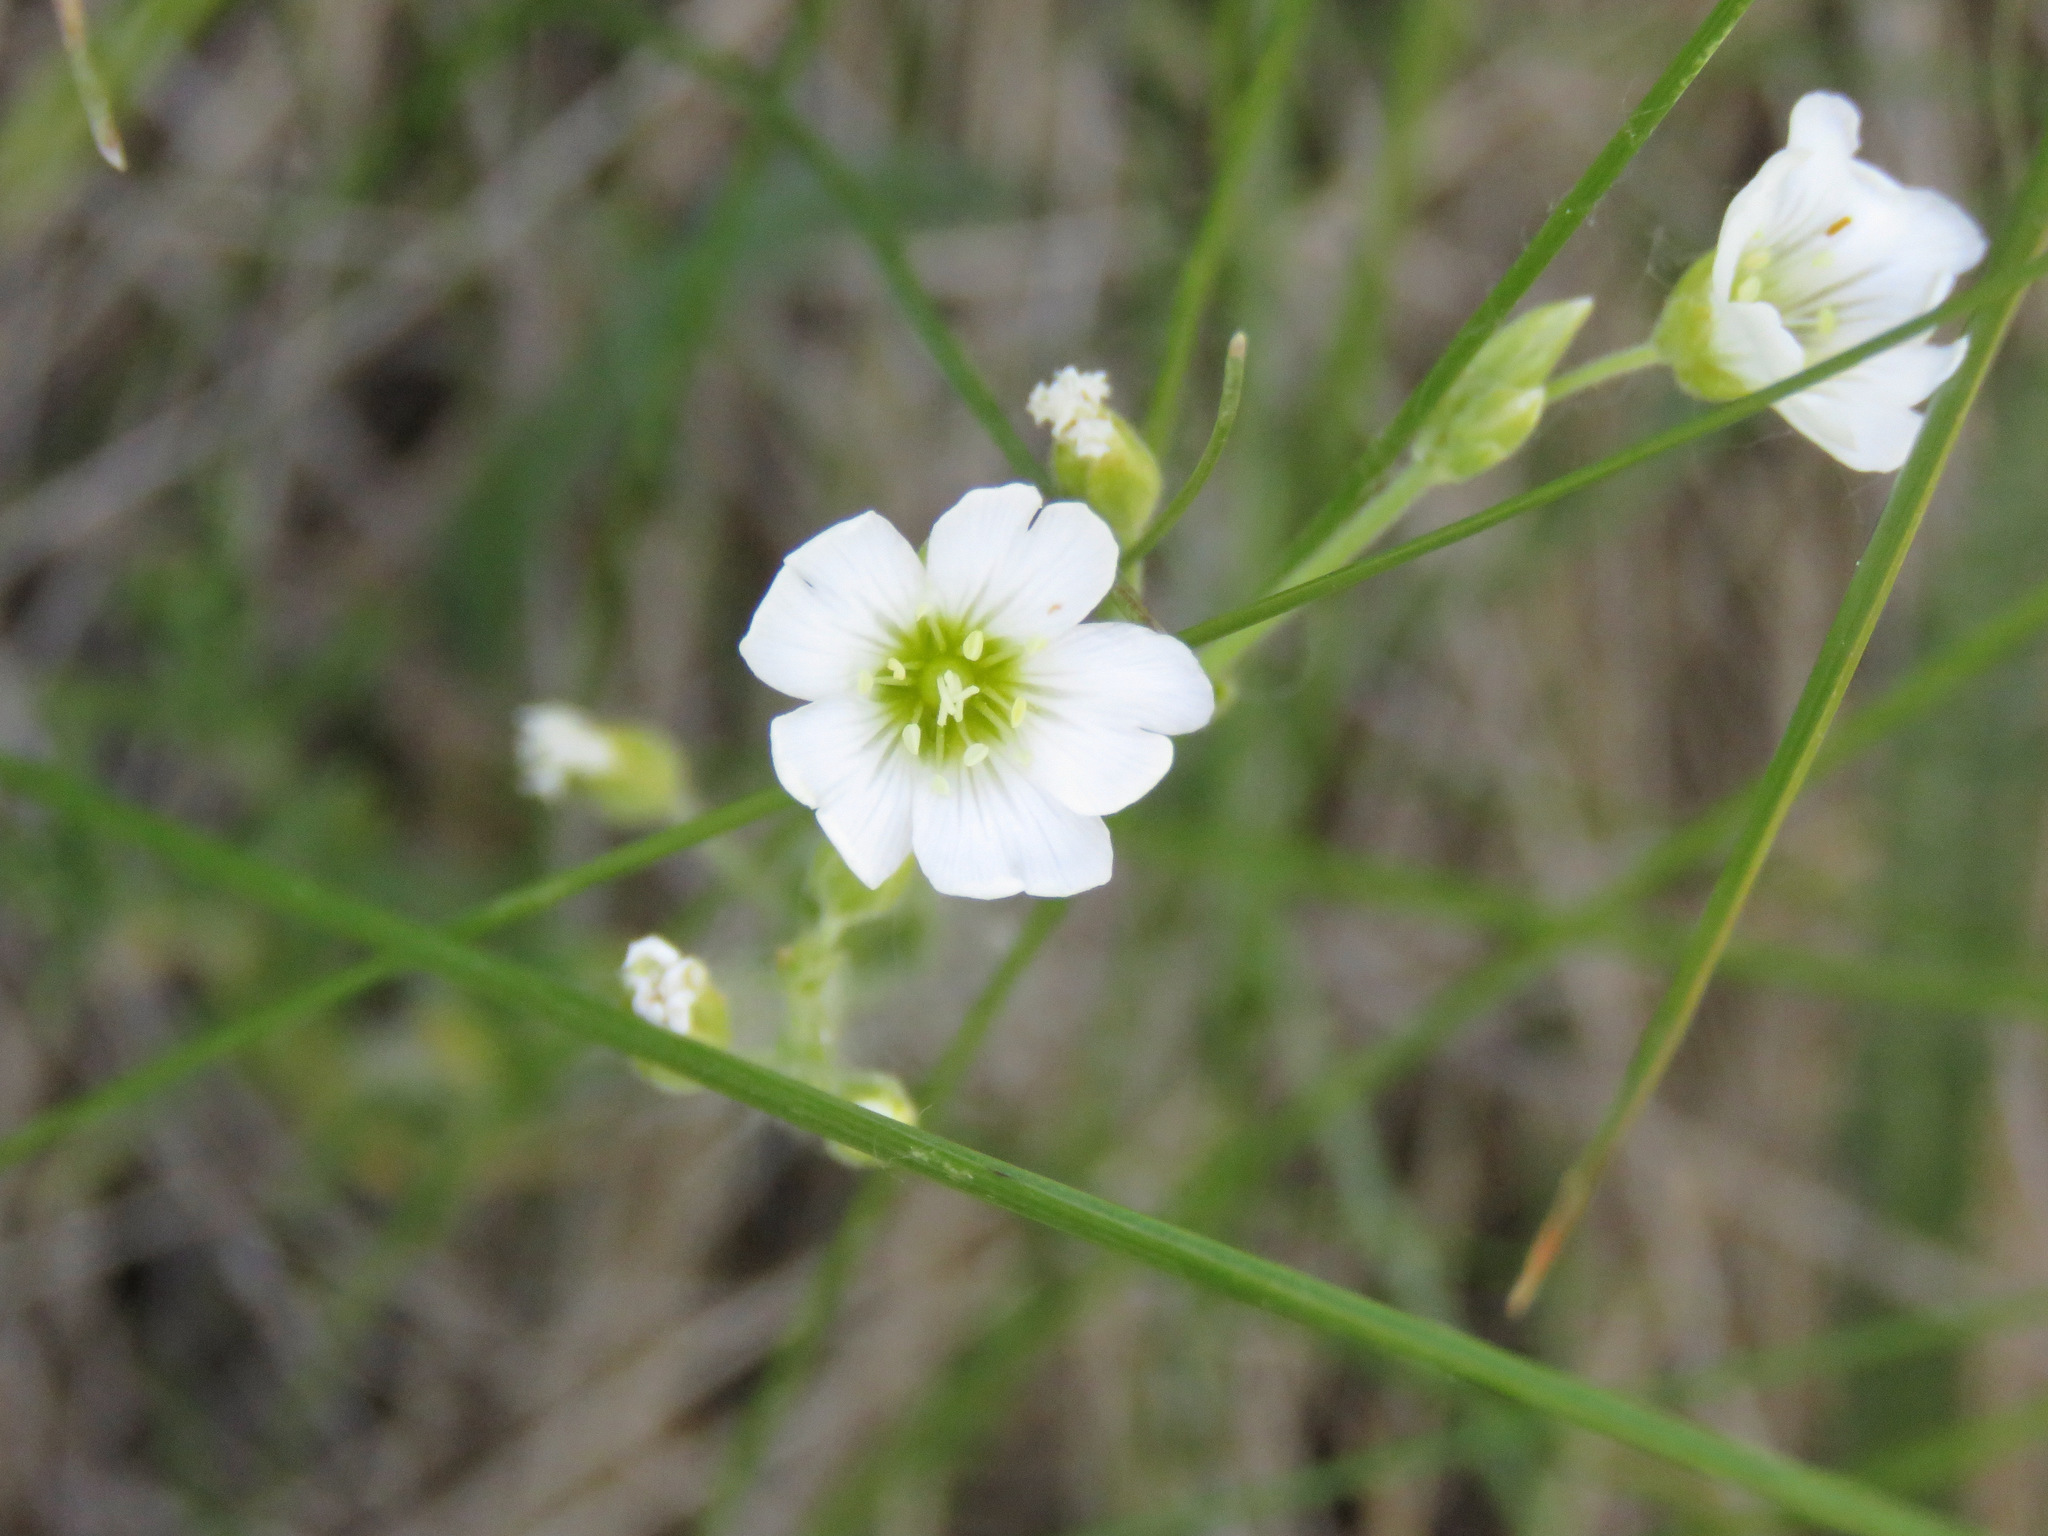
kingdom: Plantae
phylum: Tracheophyta
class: Magnoliopsida
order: Caryophyllales
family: Caryophyllaceae
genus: Cerastium
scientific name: Cerastium arvense
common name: Field mouse-ear
